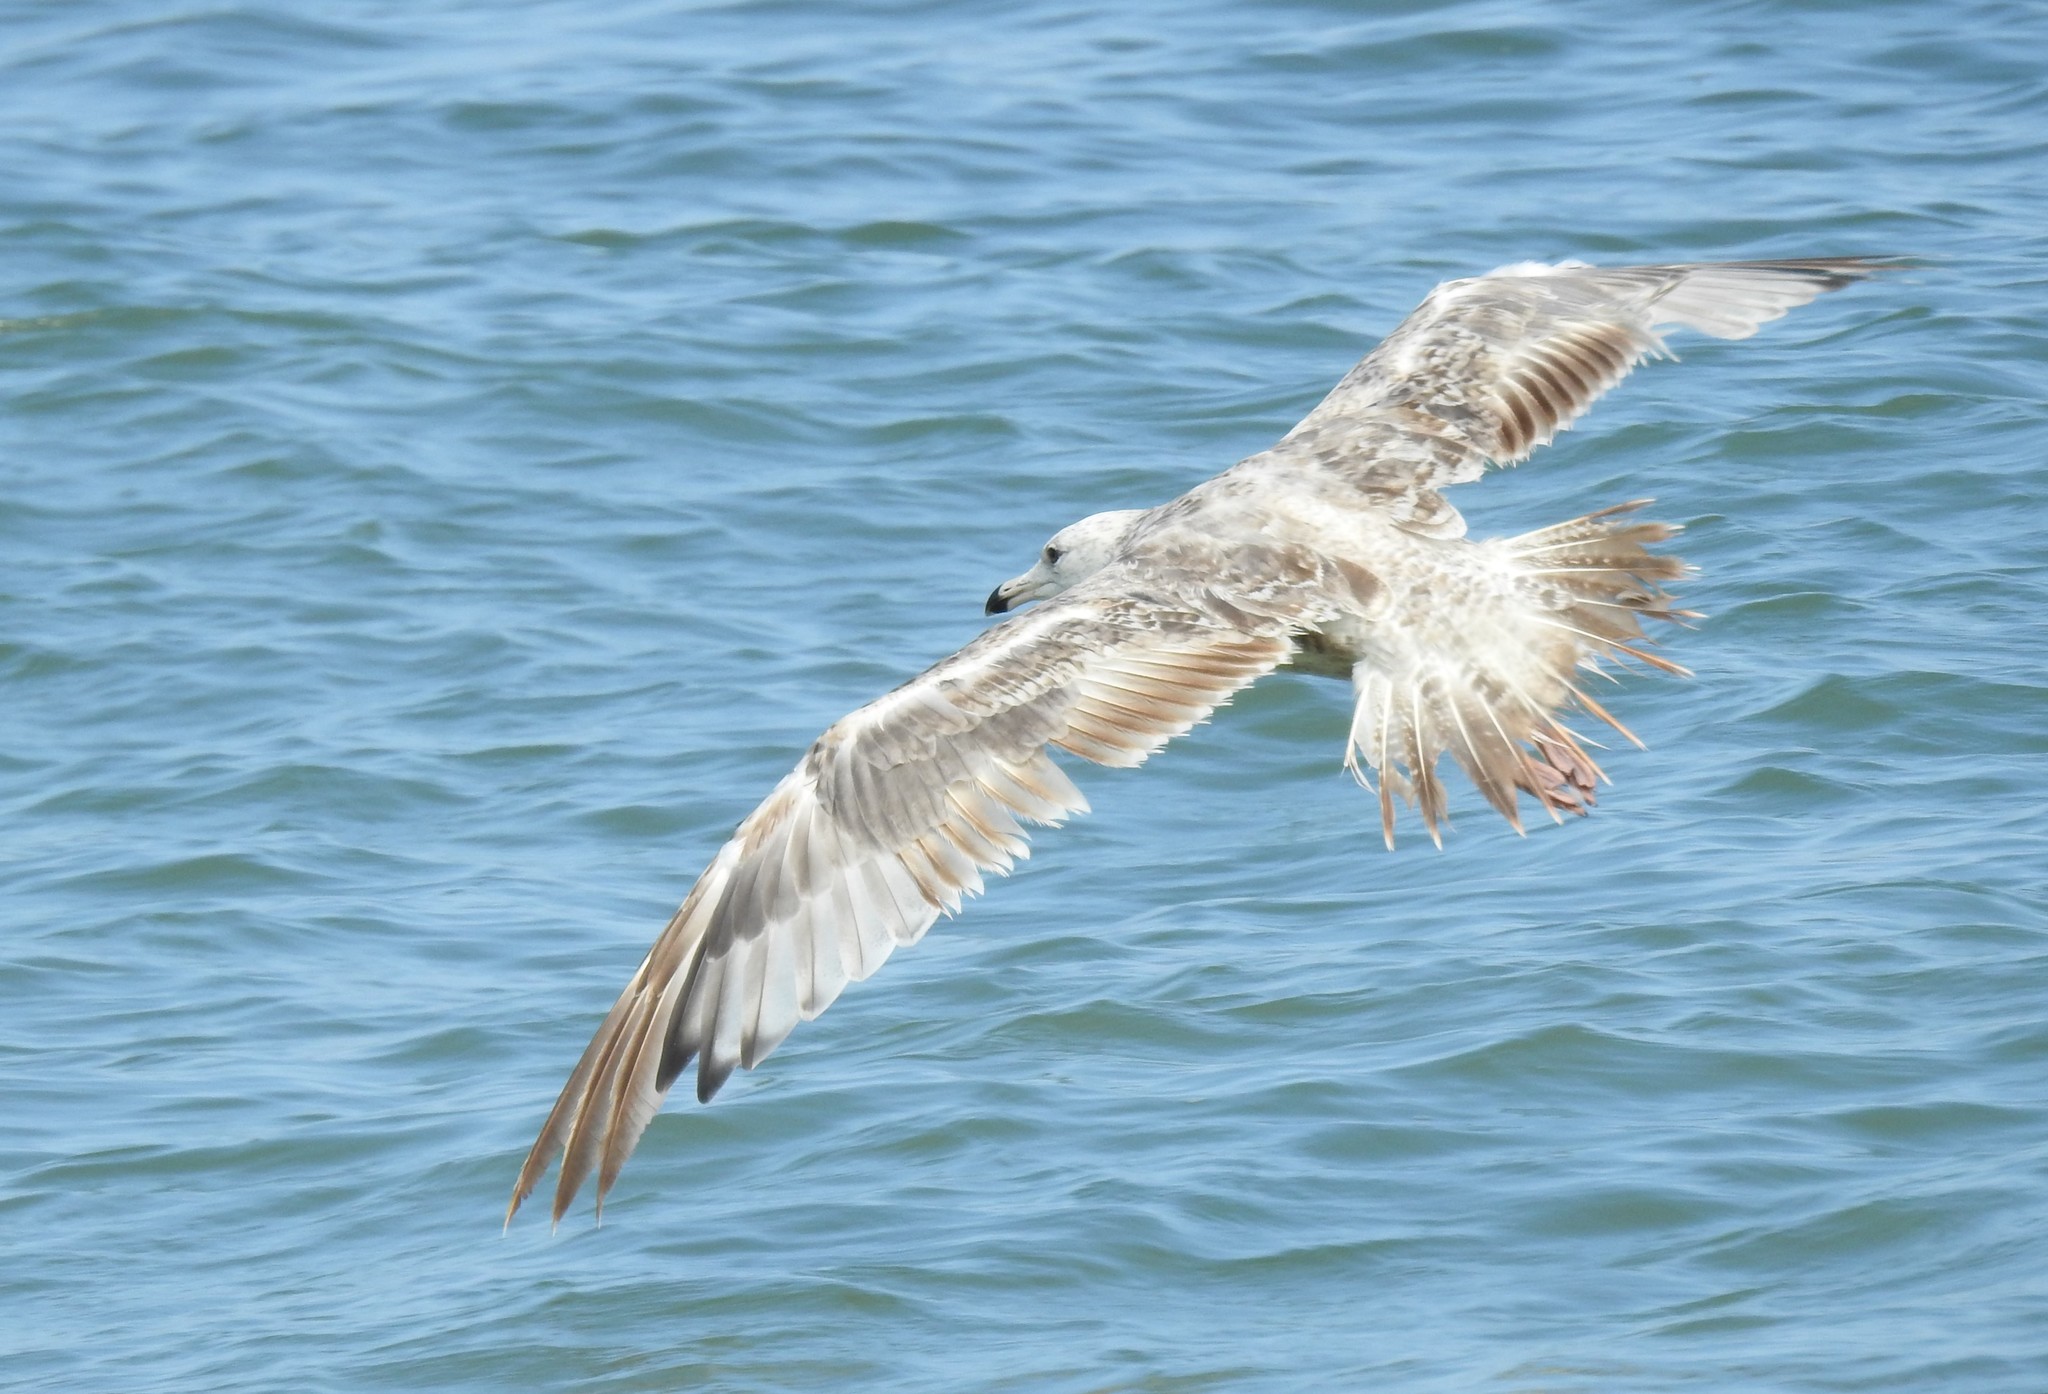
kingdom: Animalia
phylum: Chordata
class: Aves
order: Charadriiformes
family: Laridae
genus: Larus
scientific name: Larus argentatus
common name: Herring gull
